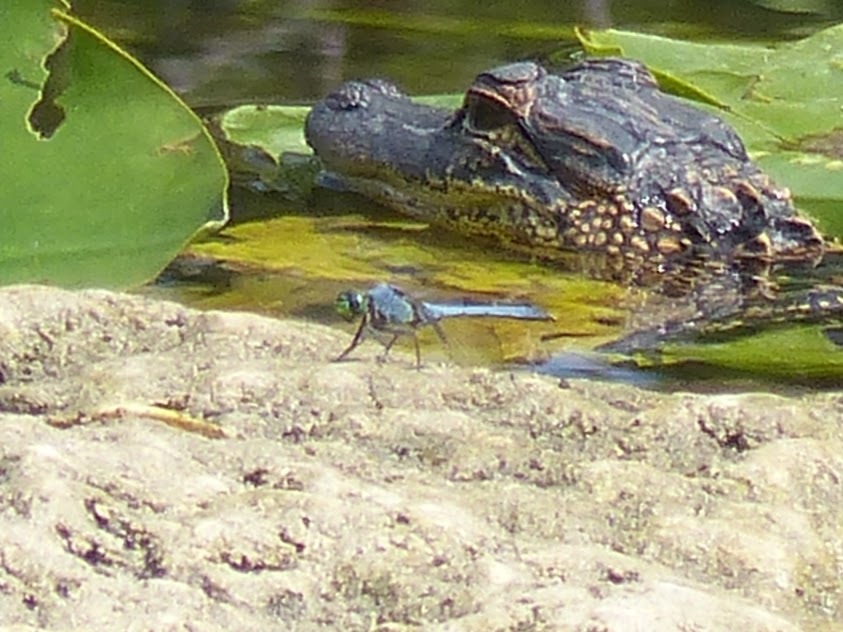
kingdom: Animalia
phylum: Arthropoda
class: Insecta
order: Odonata
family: Libellulidae
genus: Erythemis
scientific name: Erythemis simplicicollis
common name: Eastern pondhawk
